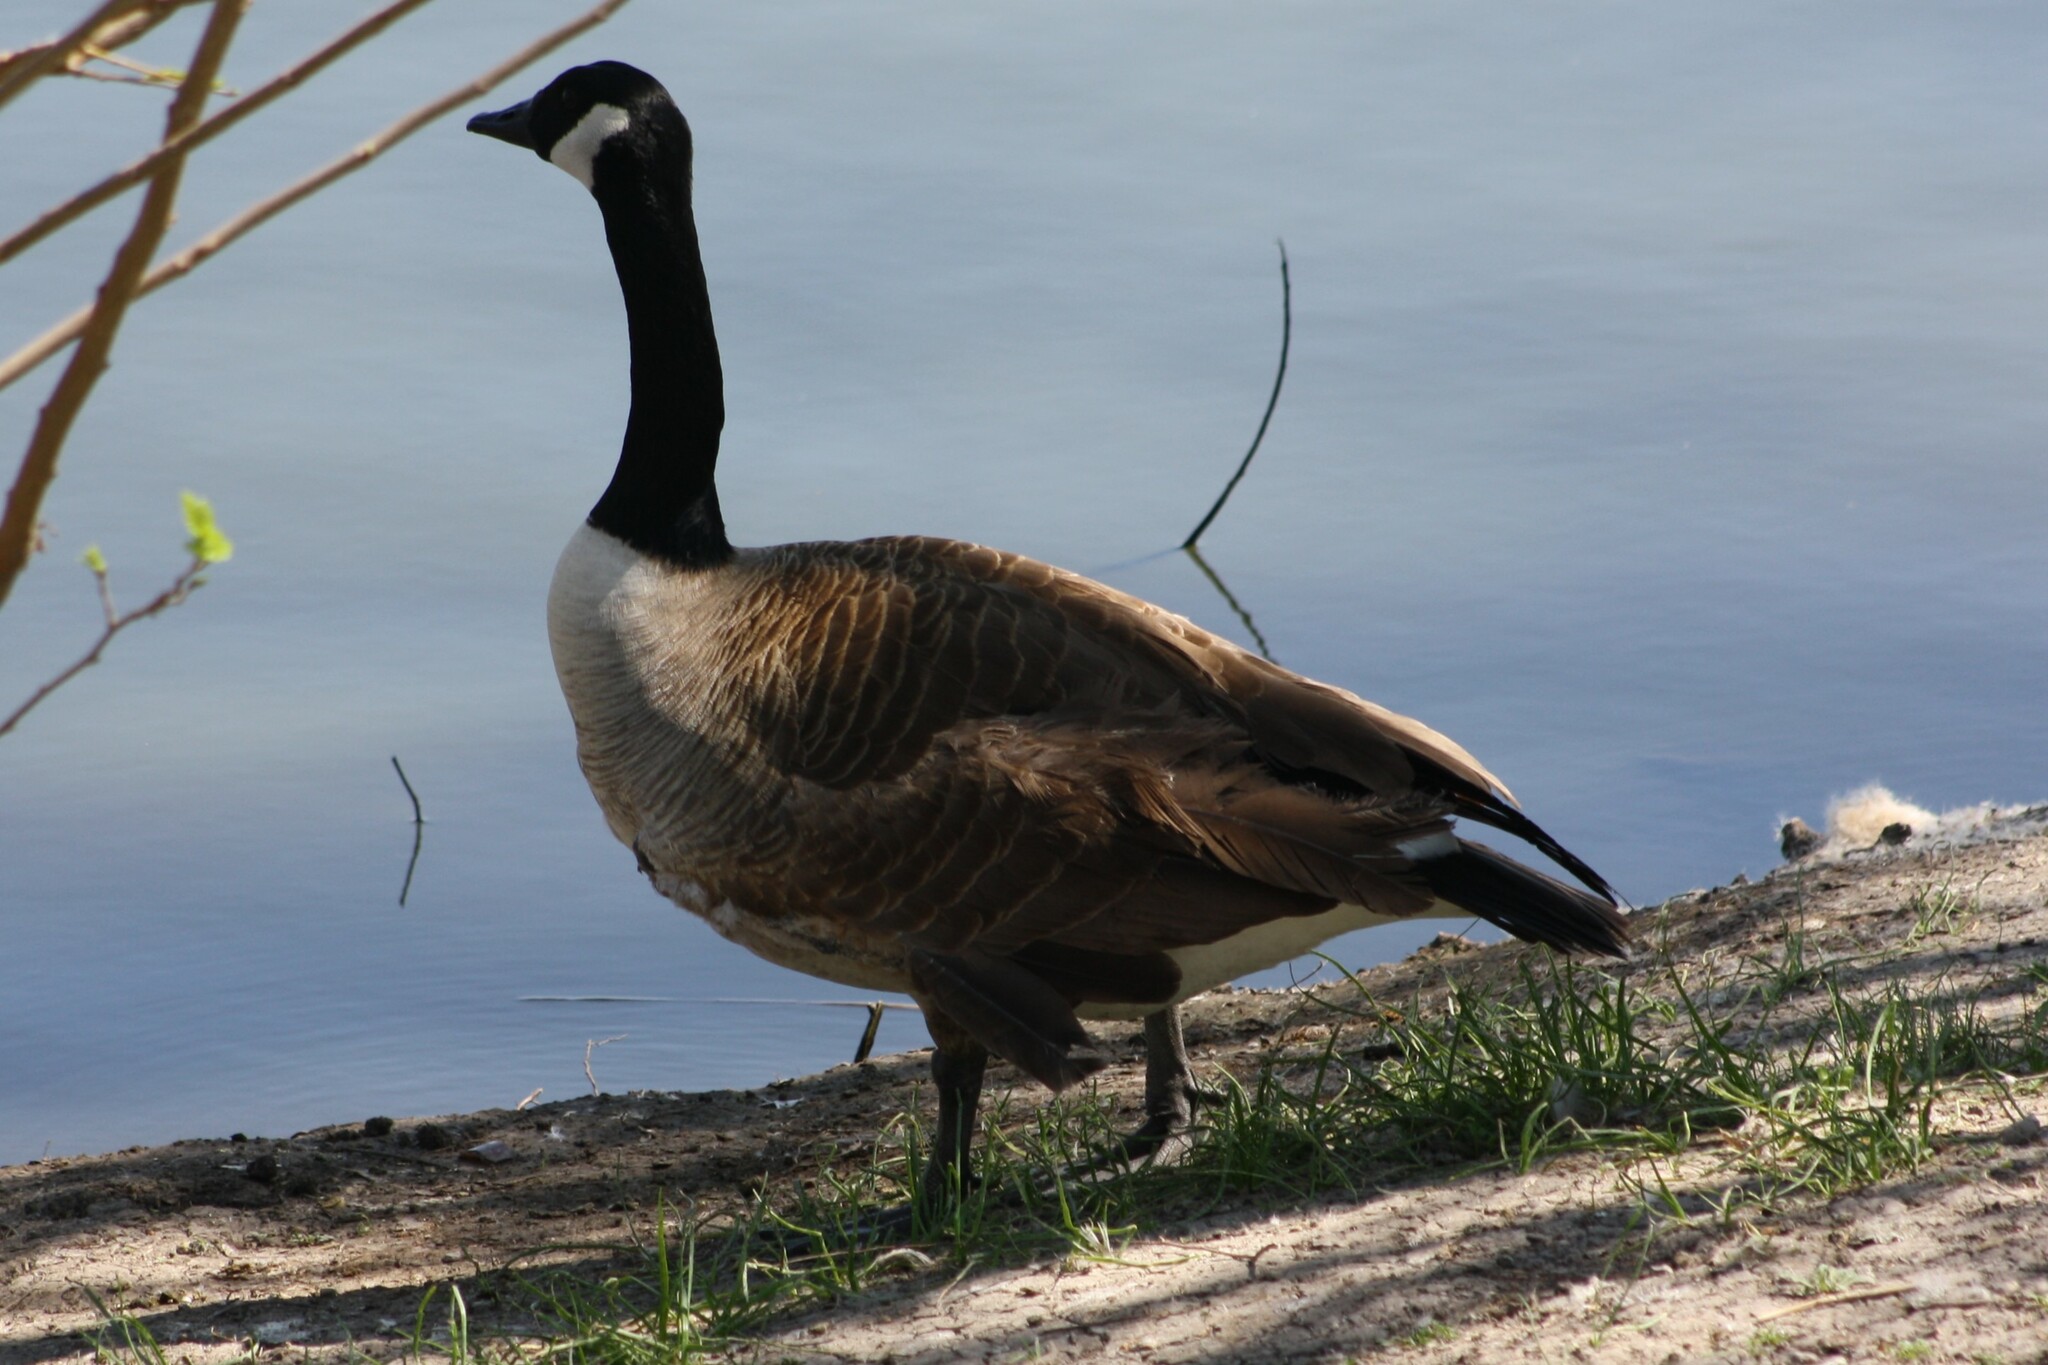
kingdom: Animalia
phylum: Chordata
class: Aves
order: Anseriformes
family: Anatidae
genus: Branta
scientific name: Branta canadensis
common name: Canada goose
